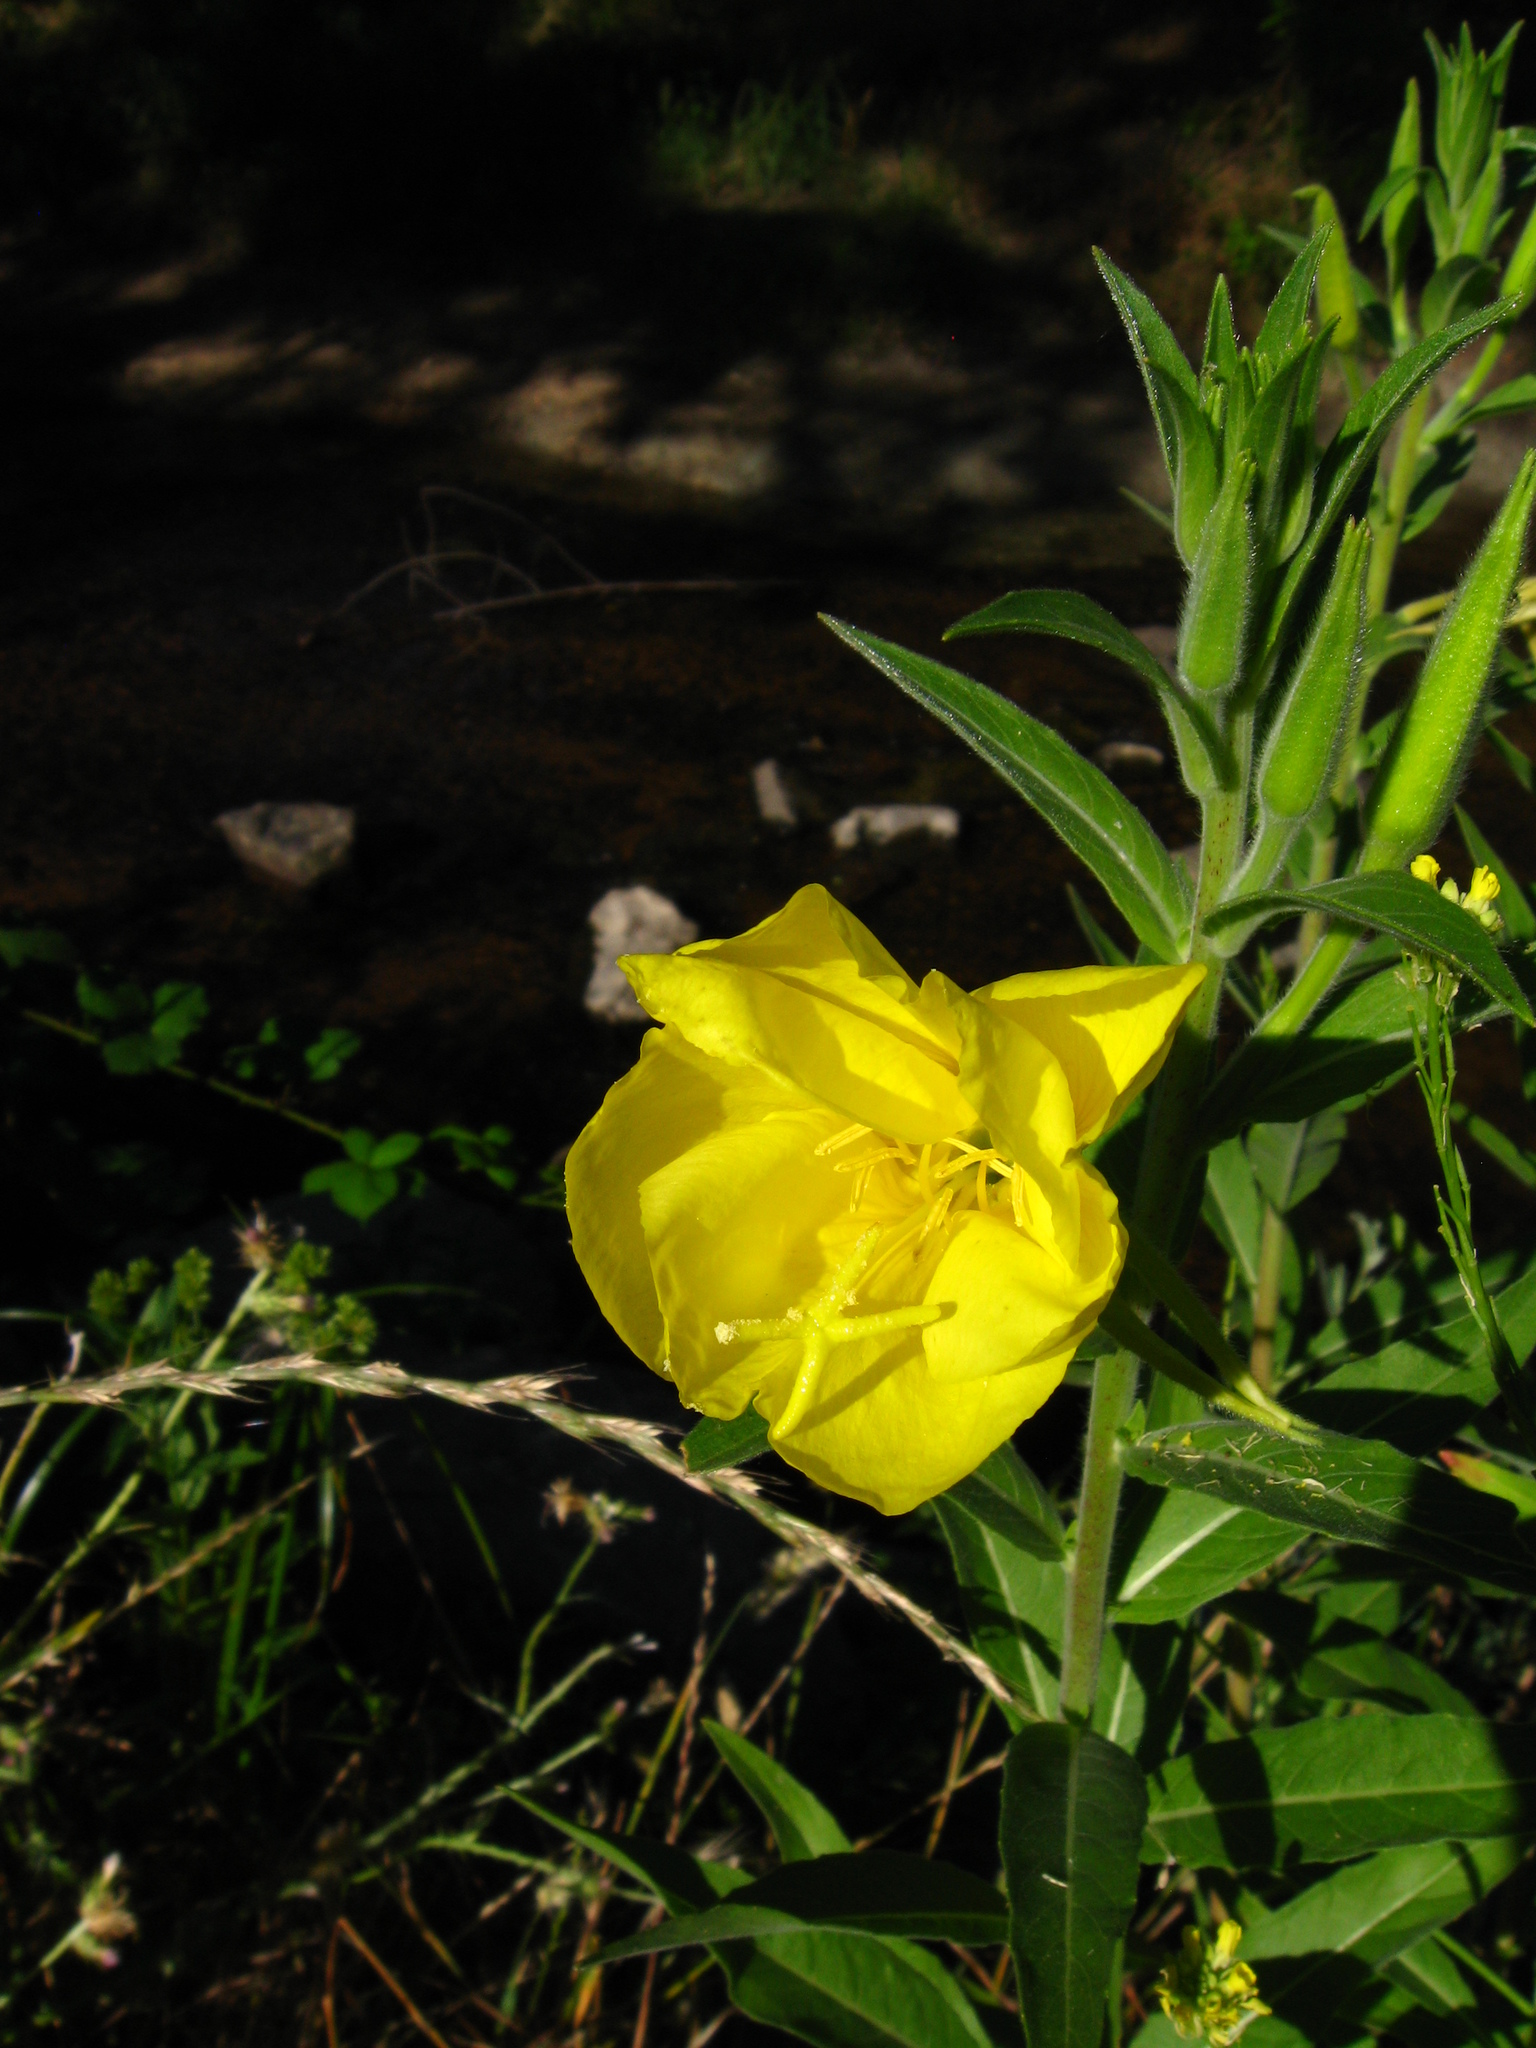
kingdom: Plantae
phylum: Tracheophyta
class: Magnoliopsida
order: Myrtales
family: Onagraceae
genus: Oenothera
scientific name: Oenothera elata
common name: Hooker's evening-primrose
